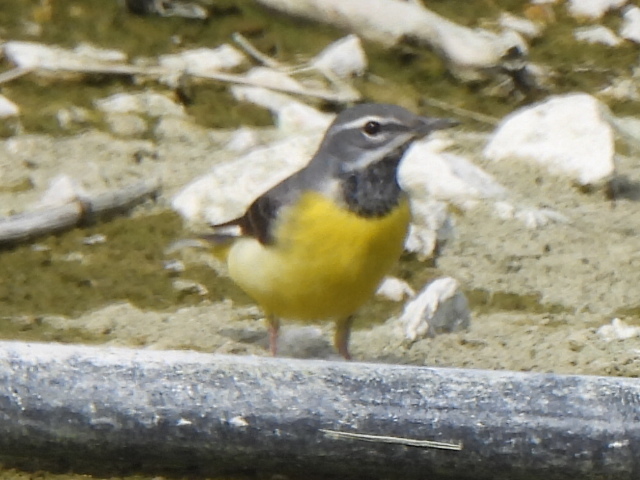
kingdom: Animalia
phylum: Chordata
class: Aves
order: Passeriformes
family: Motacillidae
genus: Motacilla
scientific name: Motacilla cinerea
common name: Grey wagtail
